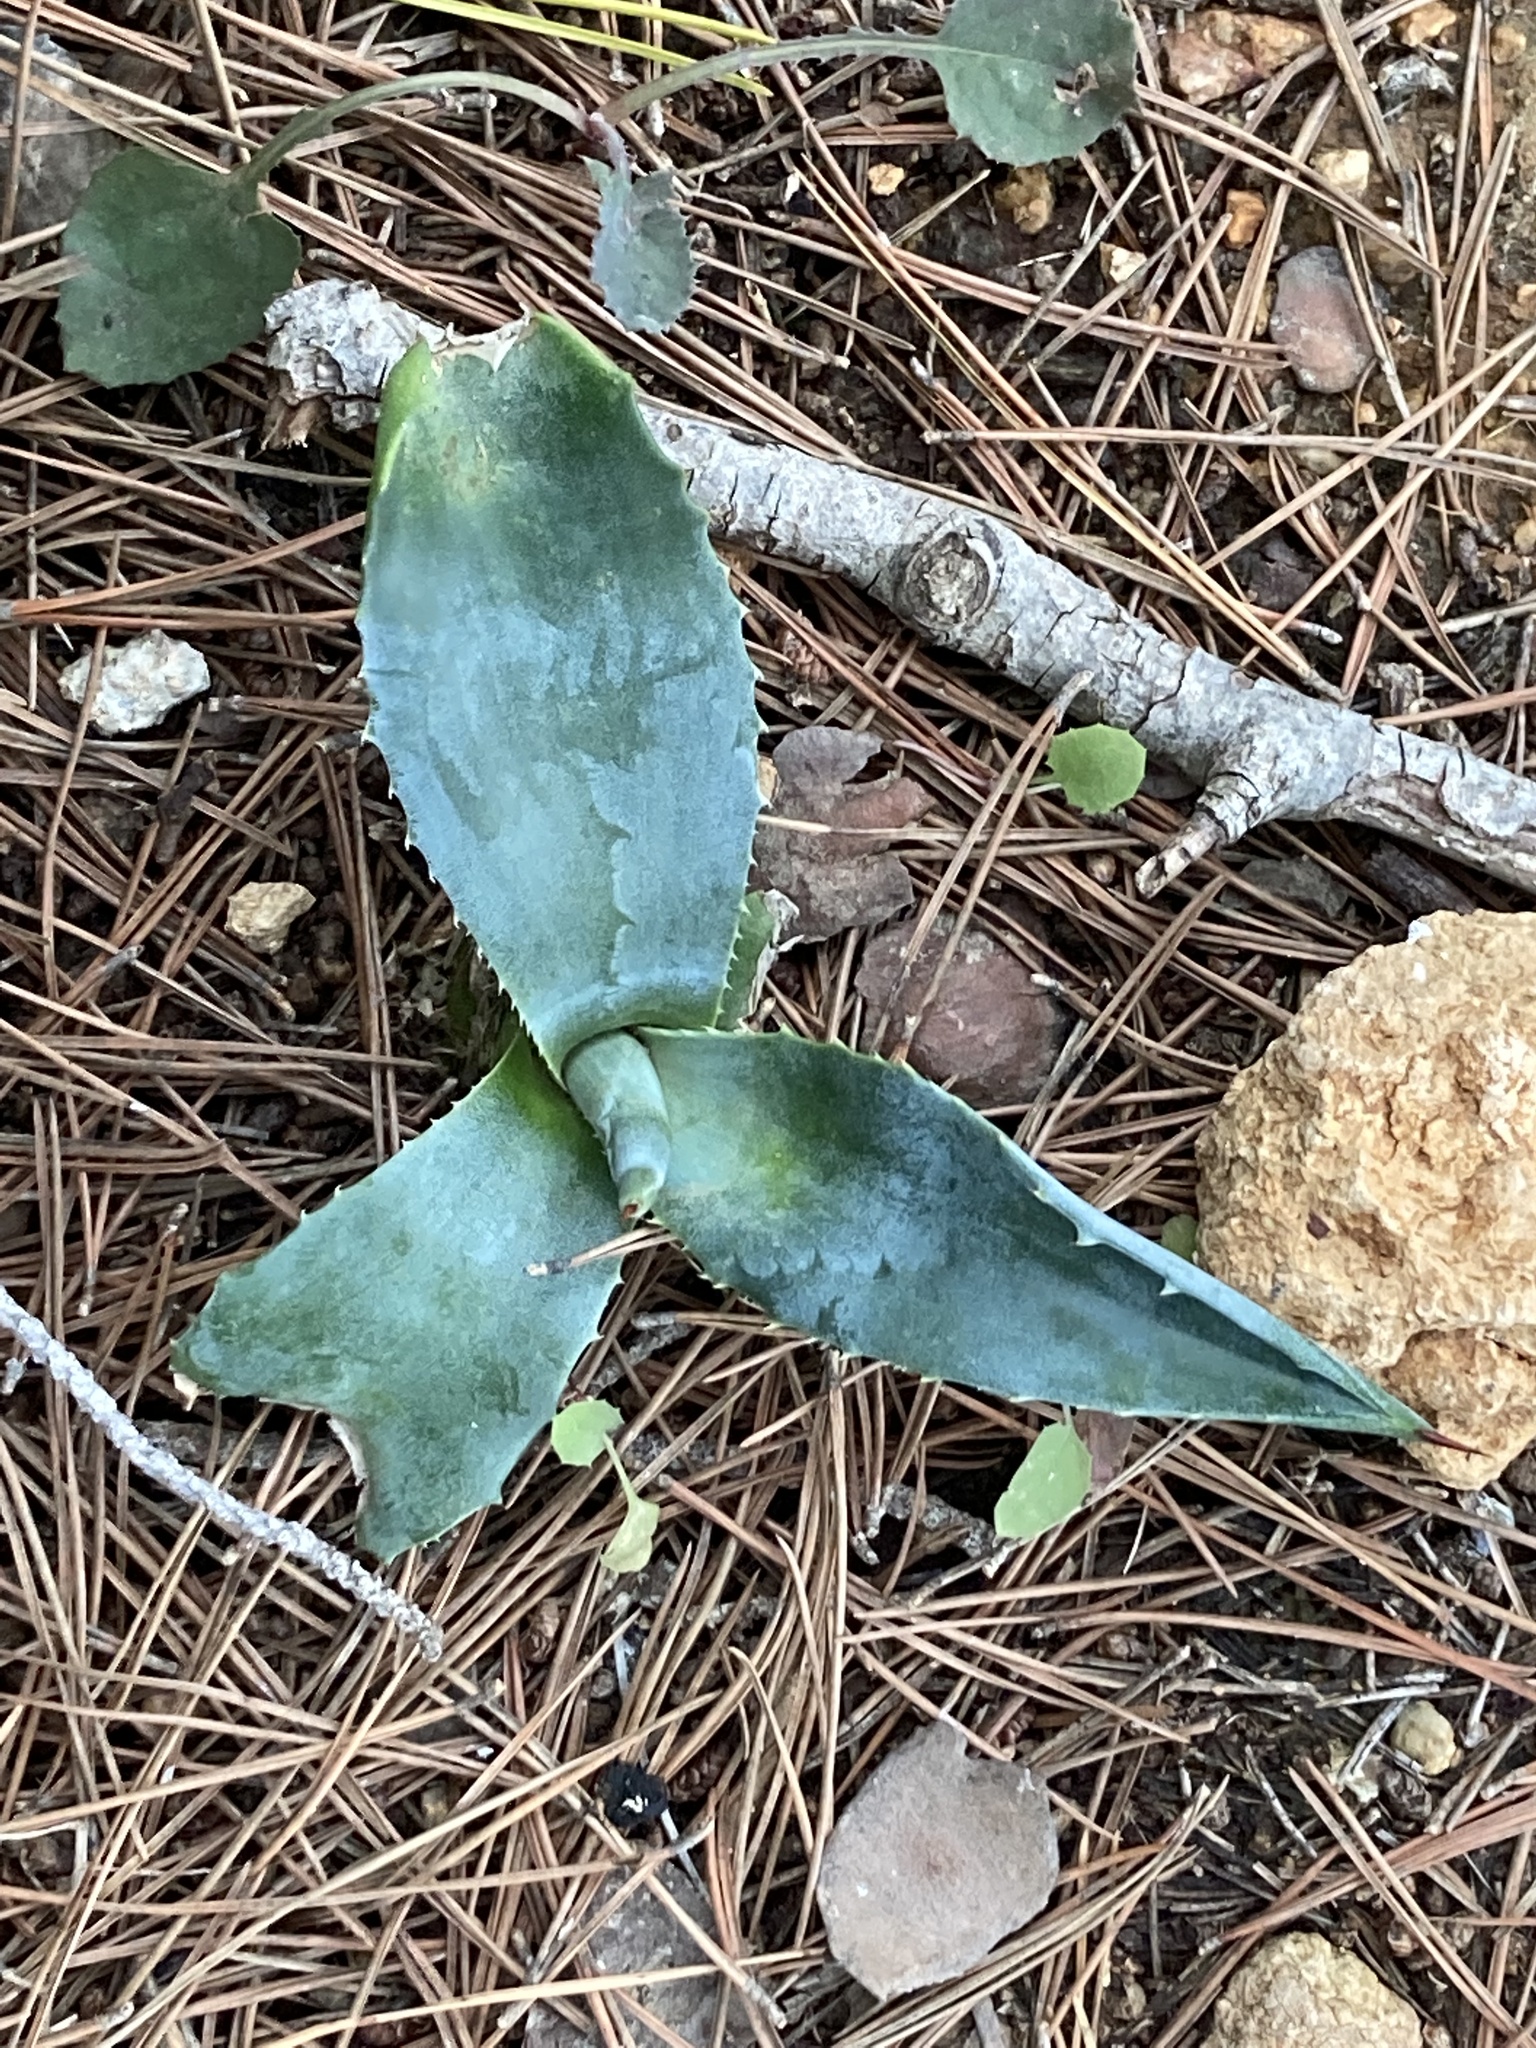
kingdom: Plantae
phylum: Tracheophyta
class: Liliopsida
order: Asparagales
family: Asparagaceae
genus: Agave
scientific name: Agave americana
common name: Centuryplant
